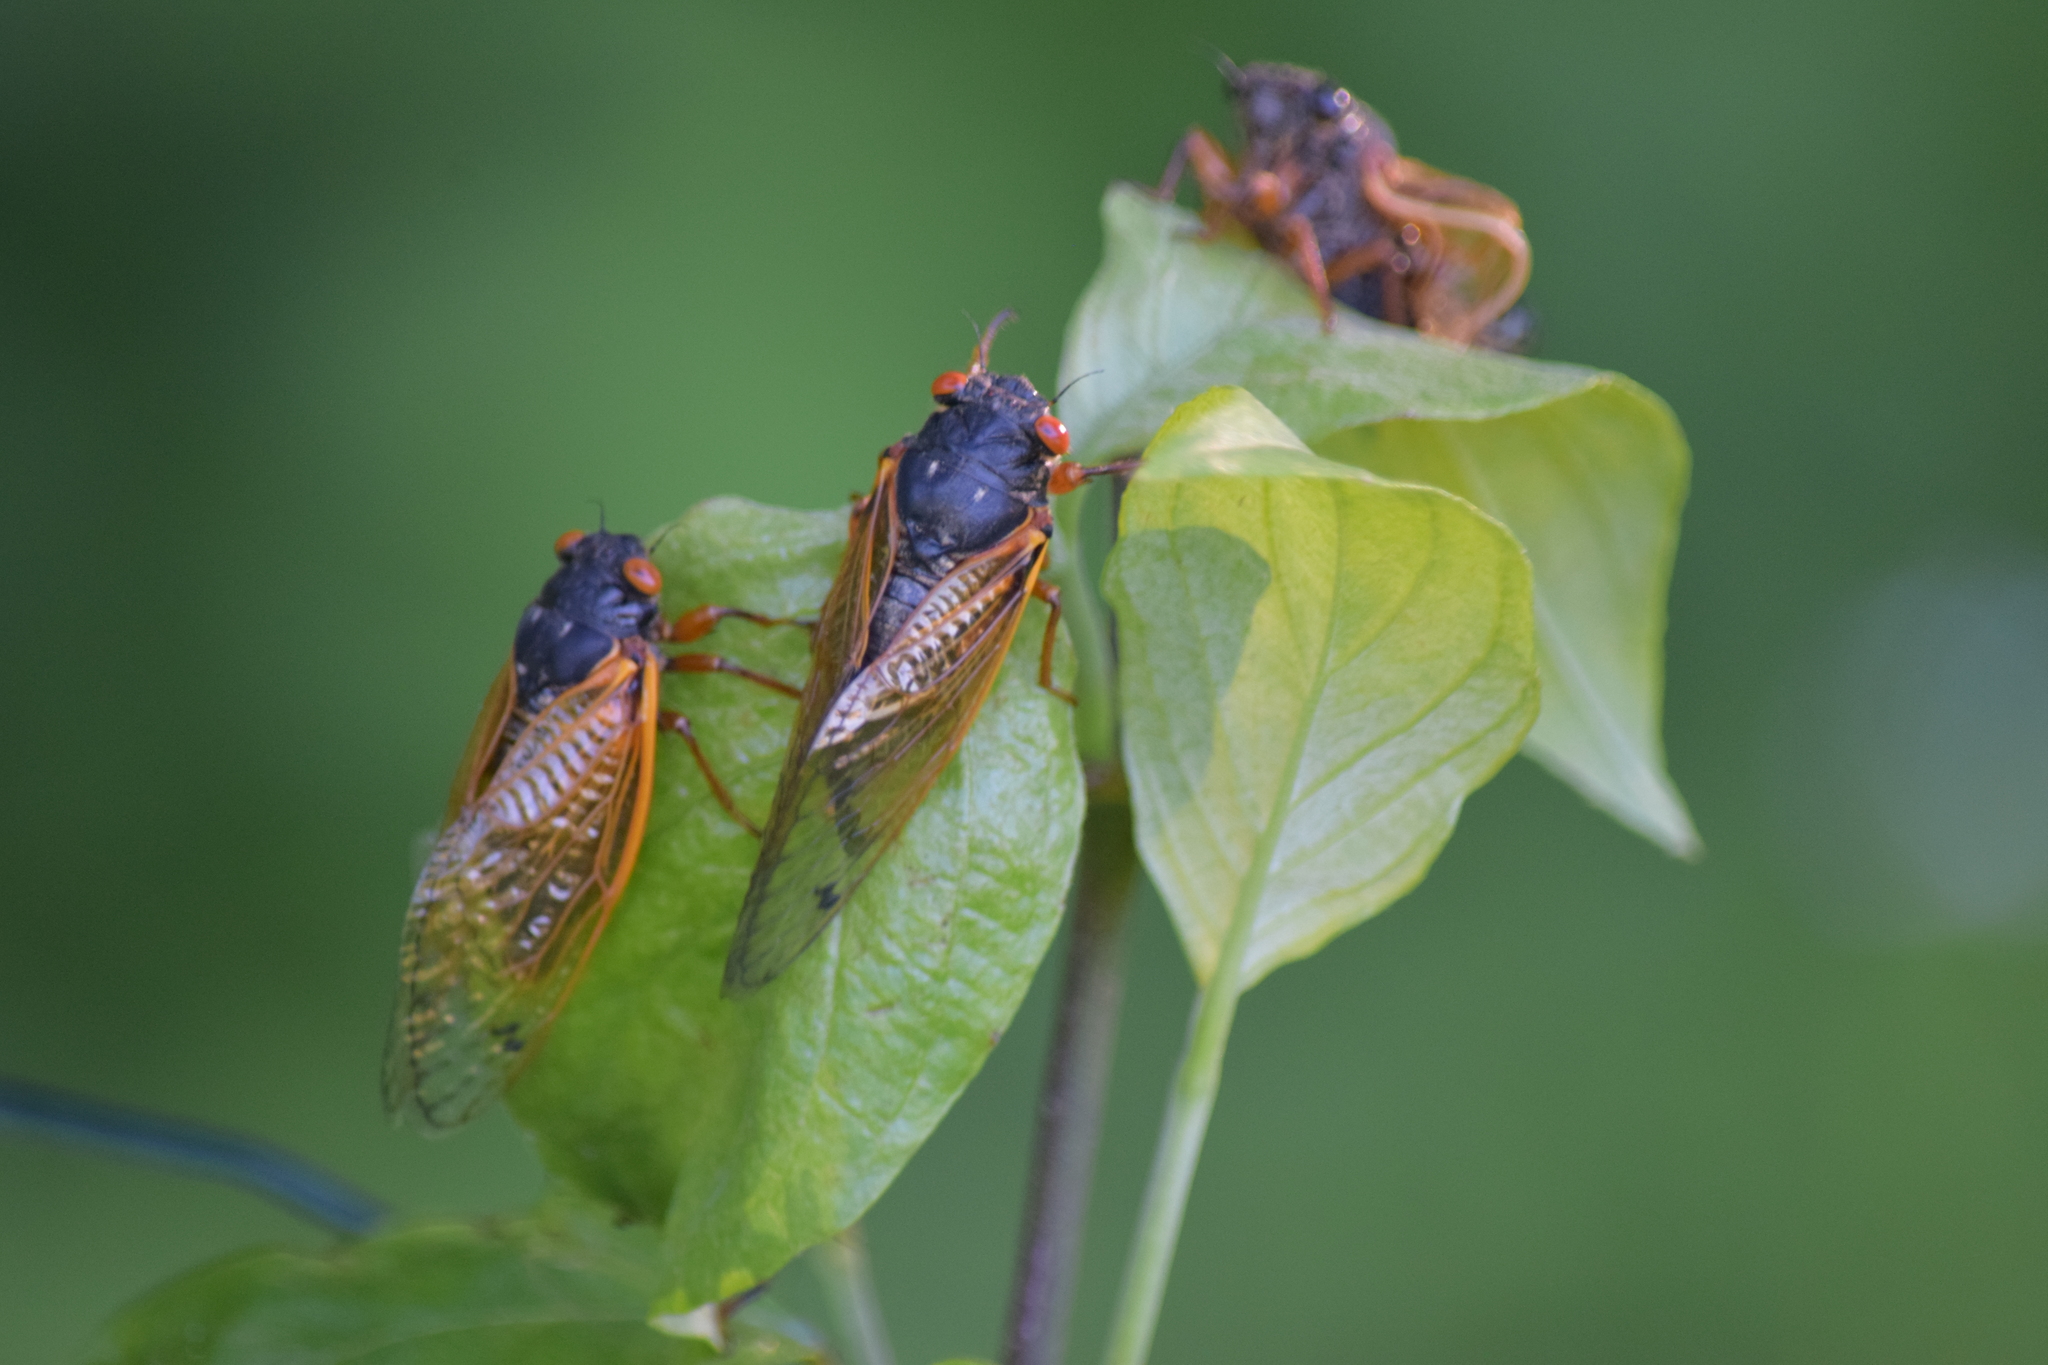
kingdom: Animalia
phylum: Arthropoda
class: Insecta
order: Hemiptera
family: Cicadidae
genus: Magicicada
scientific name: Magicicada
